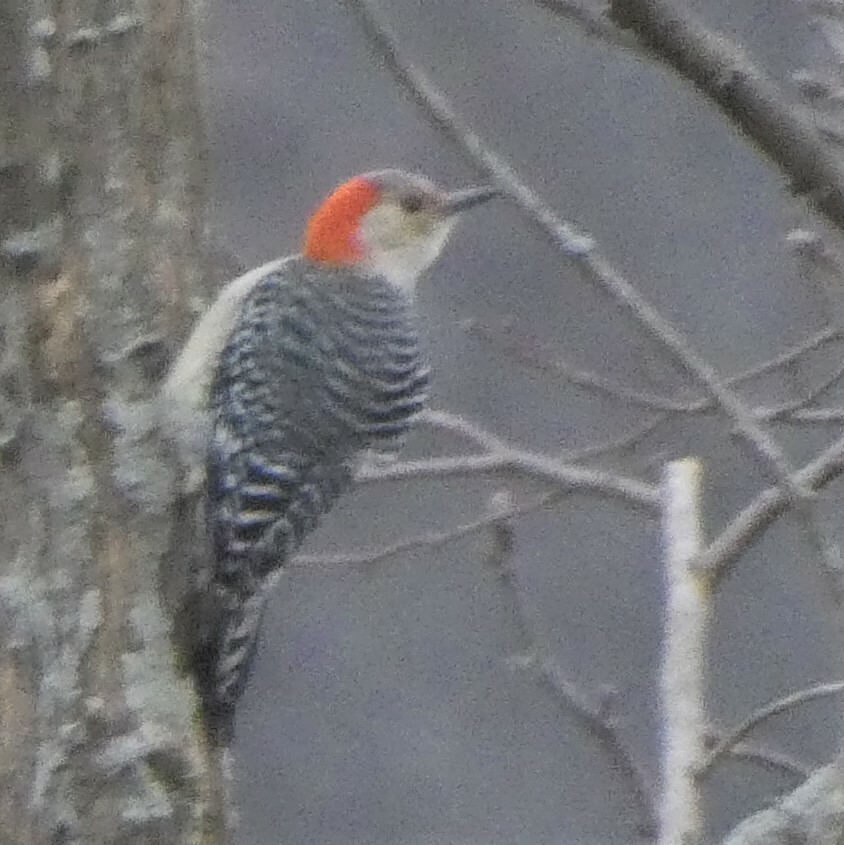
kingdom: Animalia
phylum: Chordata
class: Aves
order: Piciformes
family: Picidae
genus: Melanerpes
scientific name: Melanerpes carolinus
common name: Red-bellied woodpecker
